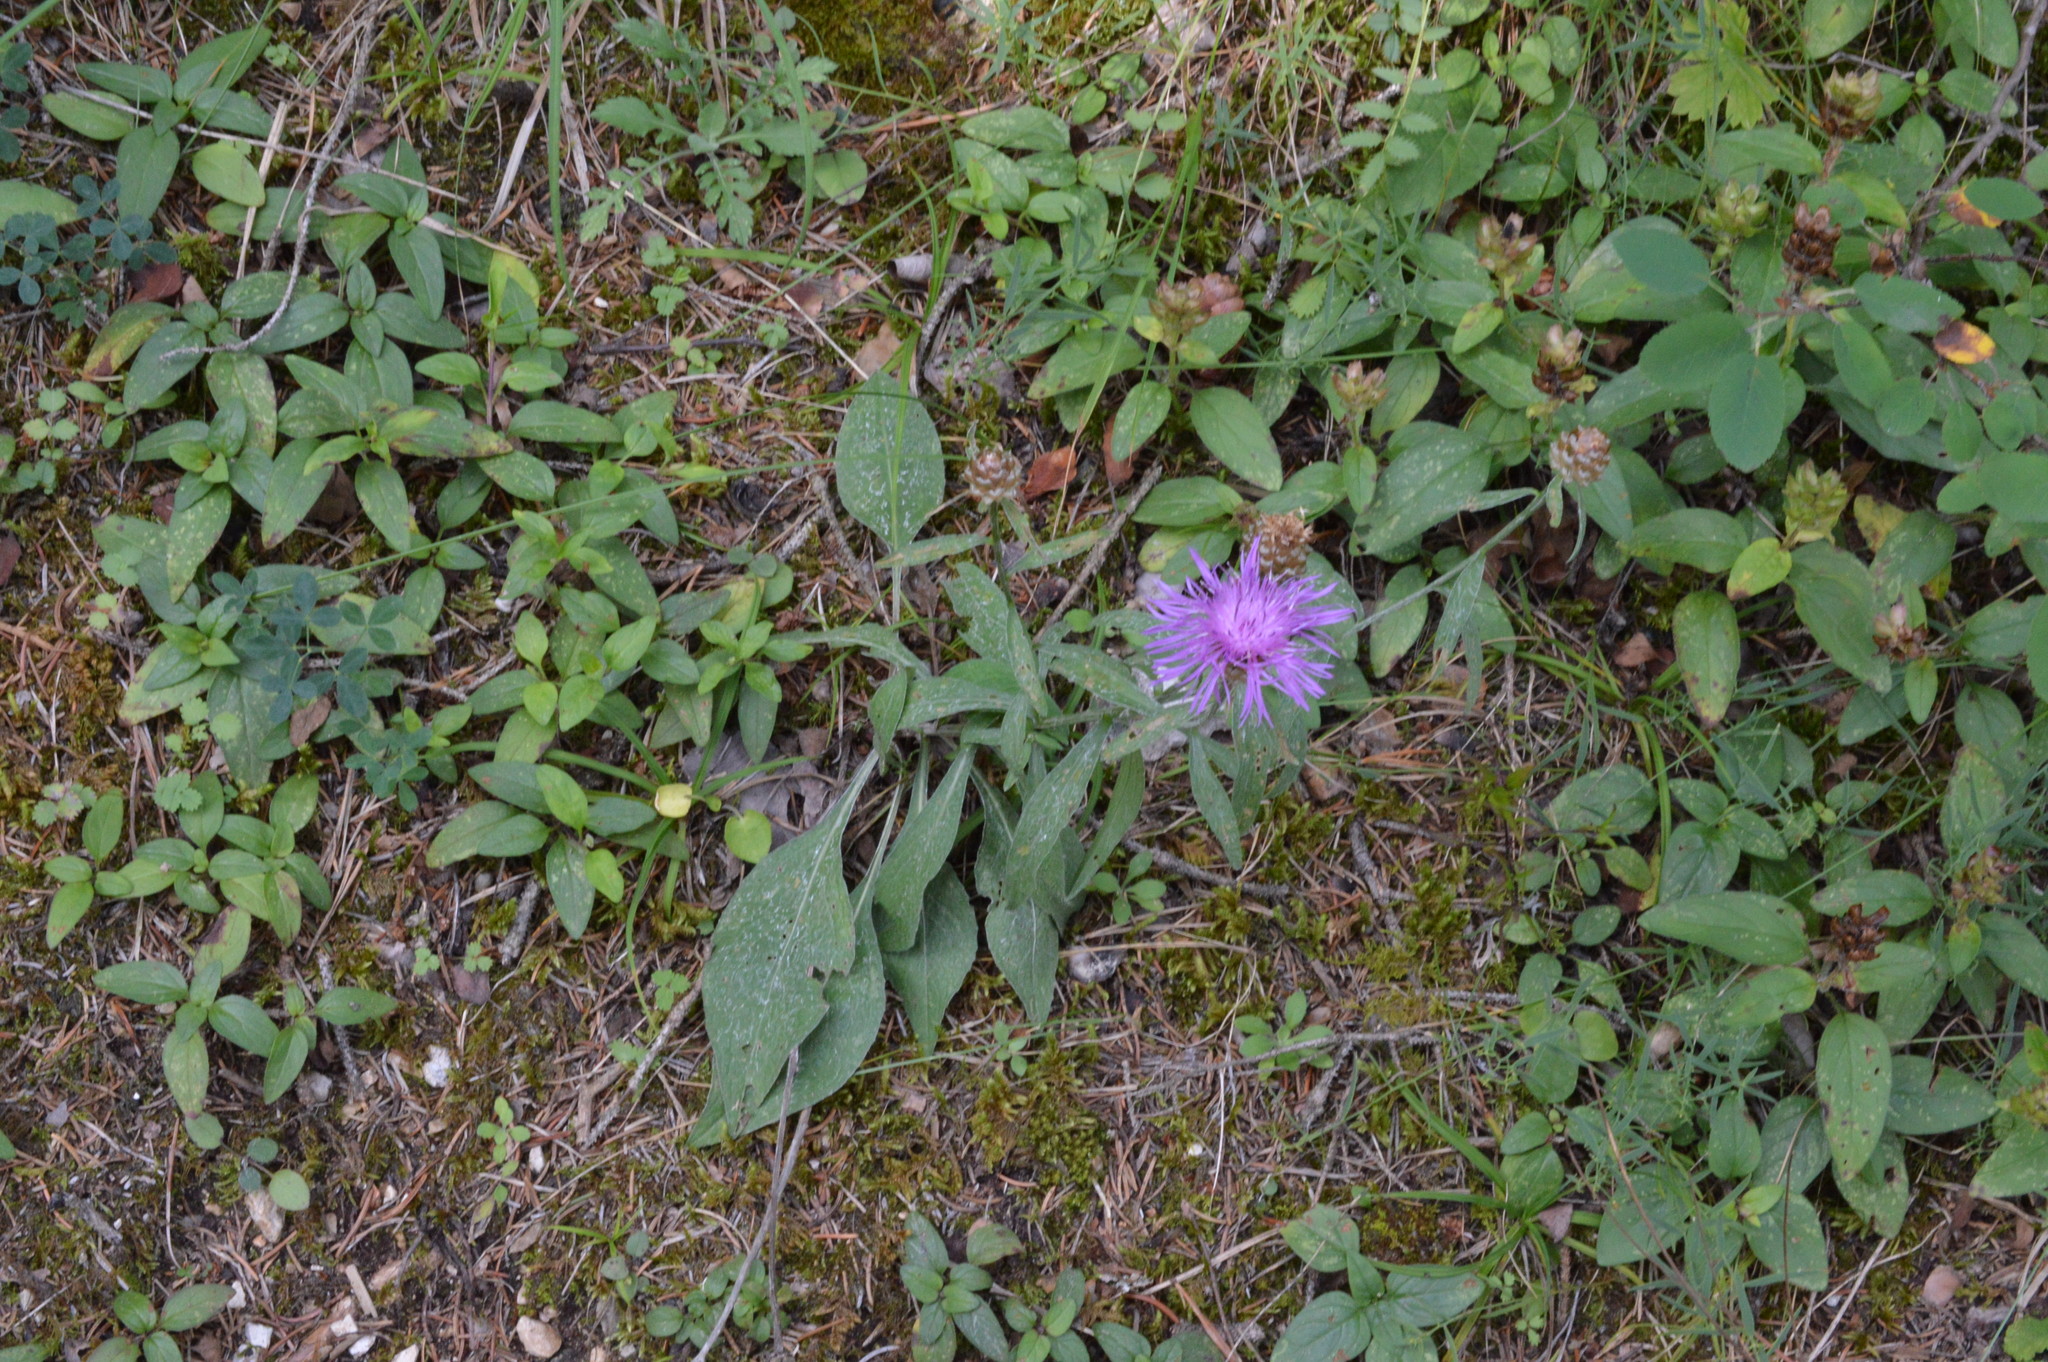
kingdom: Plantae
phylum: Tracheophyta
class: Magnoliopsida
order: Asterales
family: Asteraceae
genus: Centaurea
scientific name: Centaurea jacea
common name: Brown knapweed
